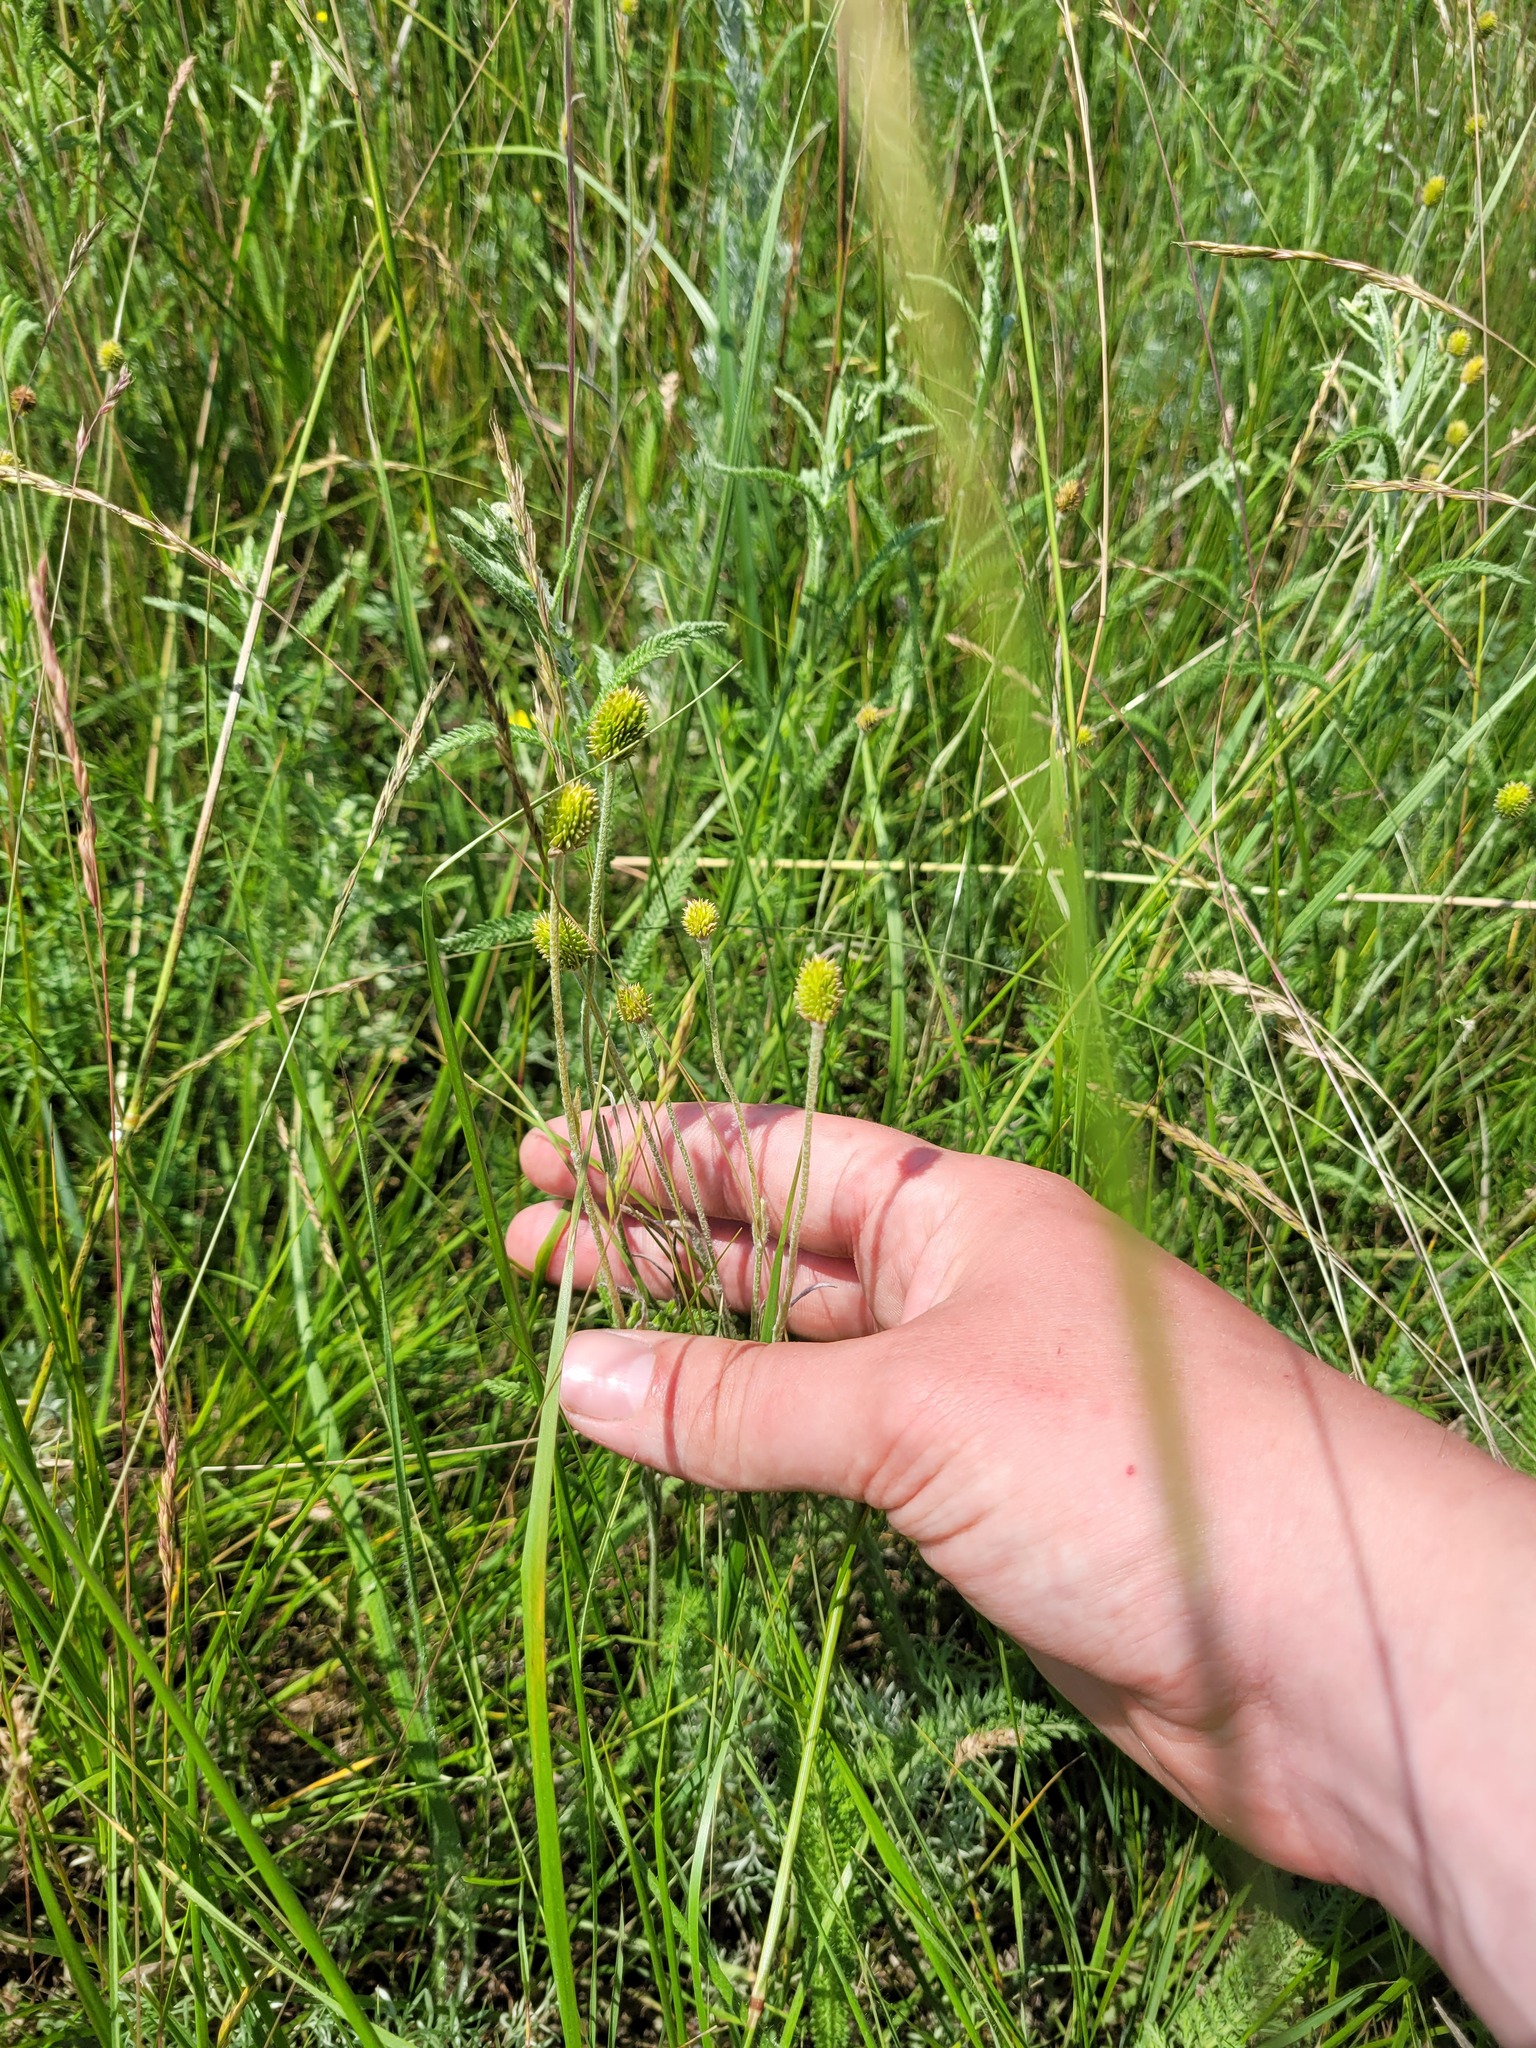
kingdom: Plantae
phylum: Tracheophyta
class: Magnoliopsida
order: Ranunculales
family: Ranunculaceae
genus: Ranunculus
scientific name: Ranunculus illyricus
